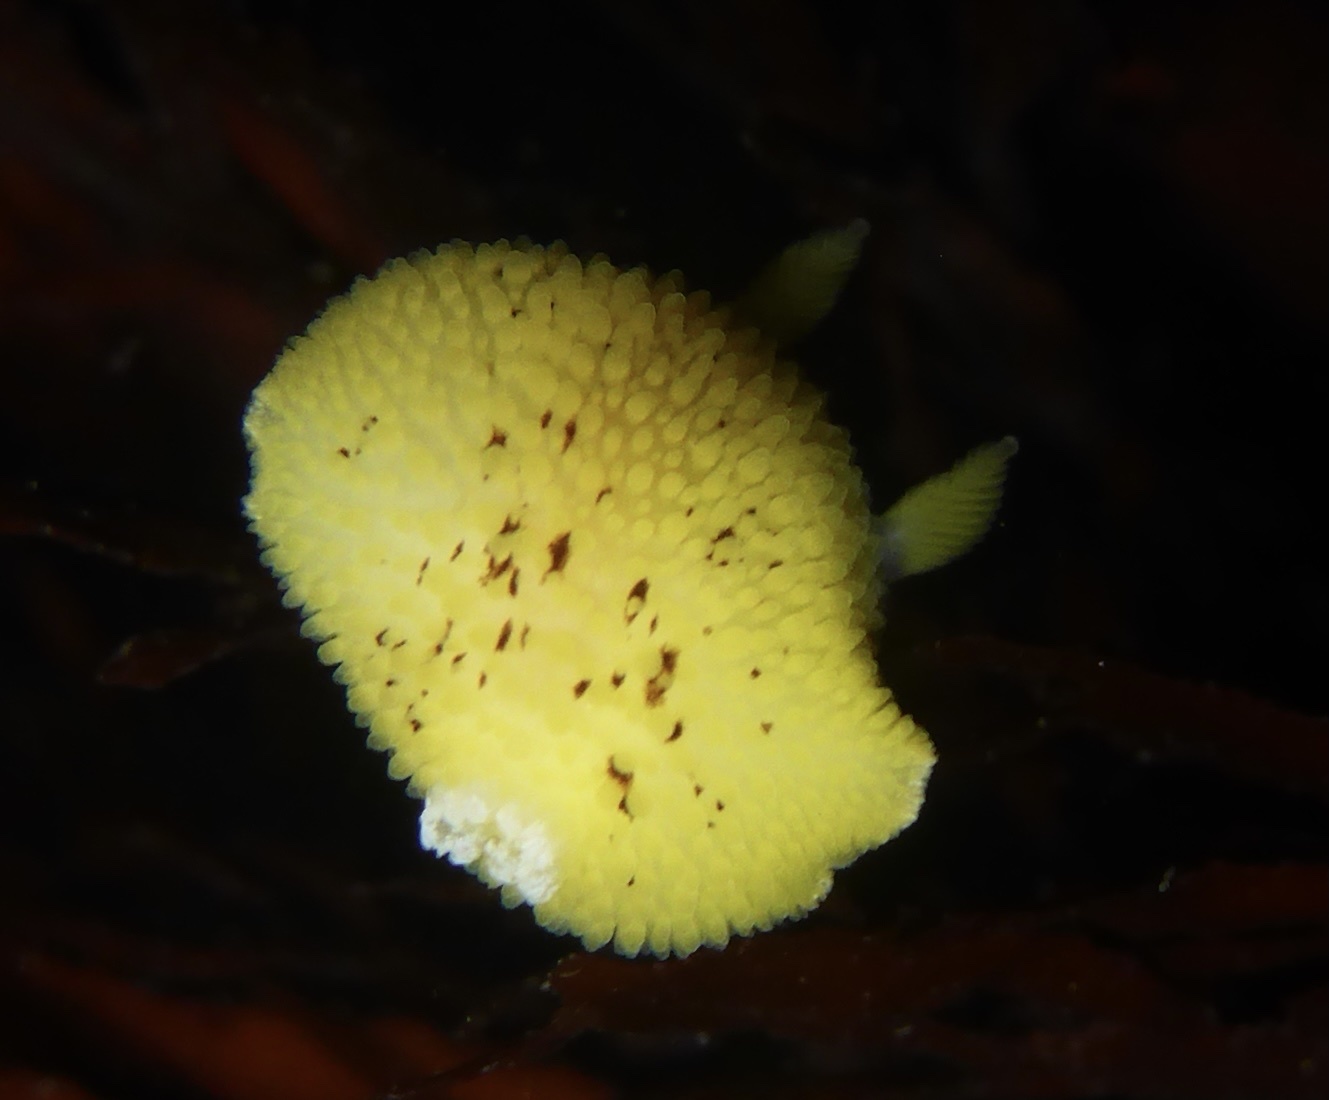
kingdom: Animalia
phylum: Mollusca
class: Gastropoda
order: Nudibranchia
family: Discodorididae
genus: Peltodoris
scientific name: Peltodoris nobilis
